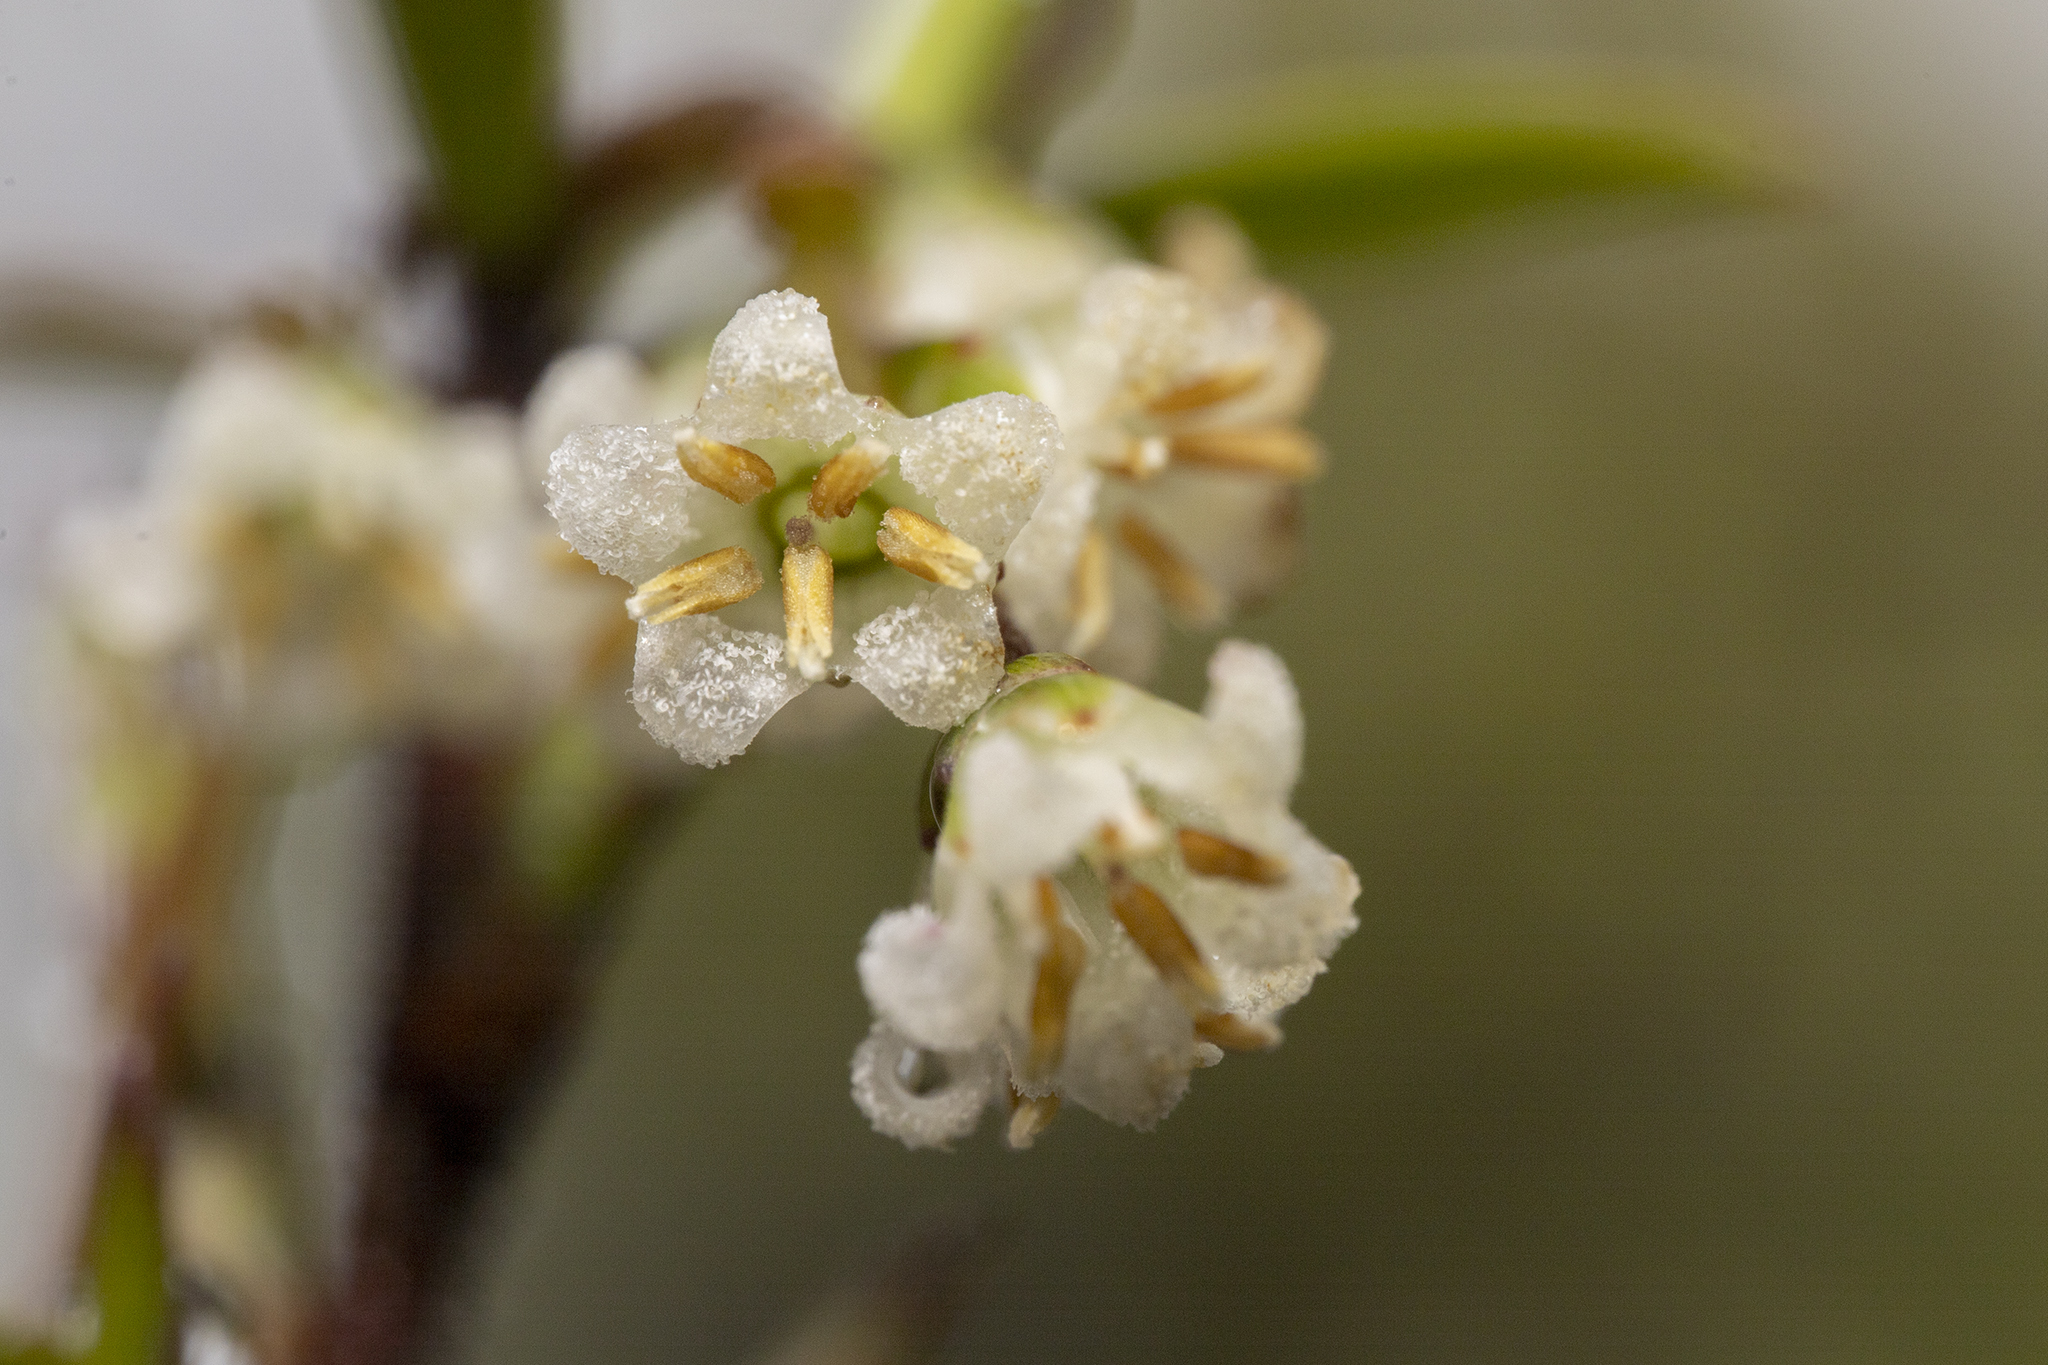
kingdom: Plantae
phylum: Tracheophyta
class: Magnoliopsida
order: Ericales
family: Ericaceae
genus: Leucopogon
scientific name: Leucopogon fasciculatus
